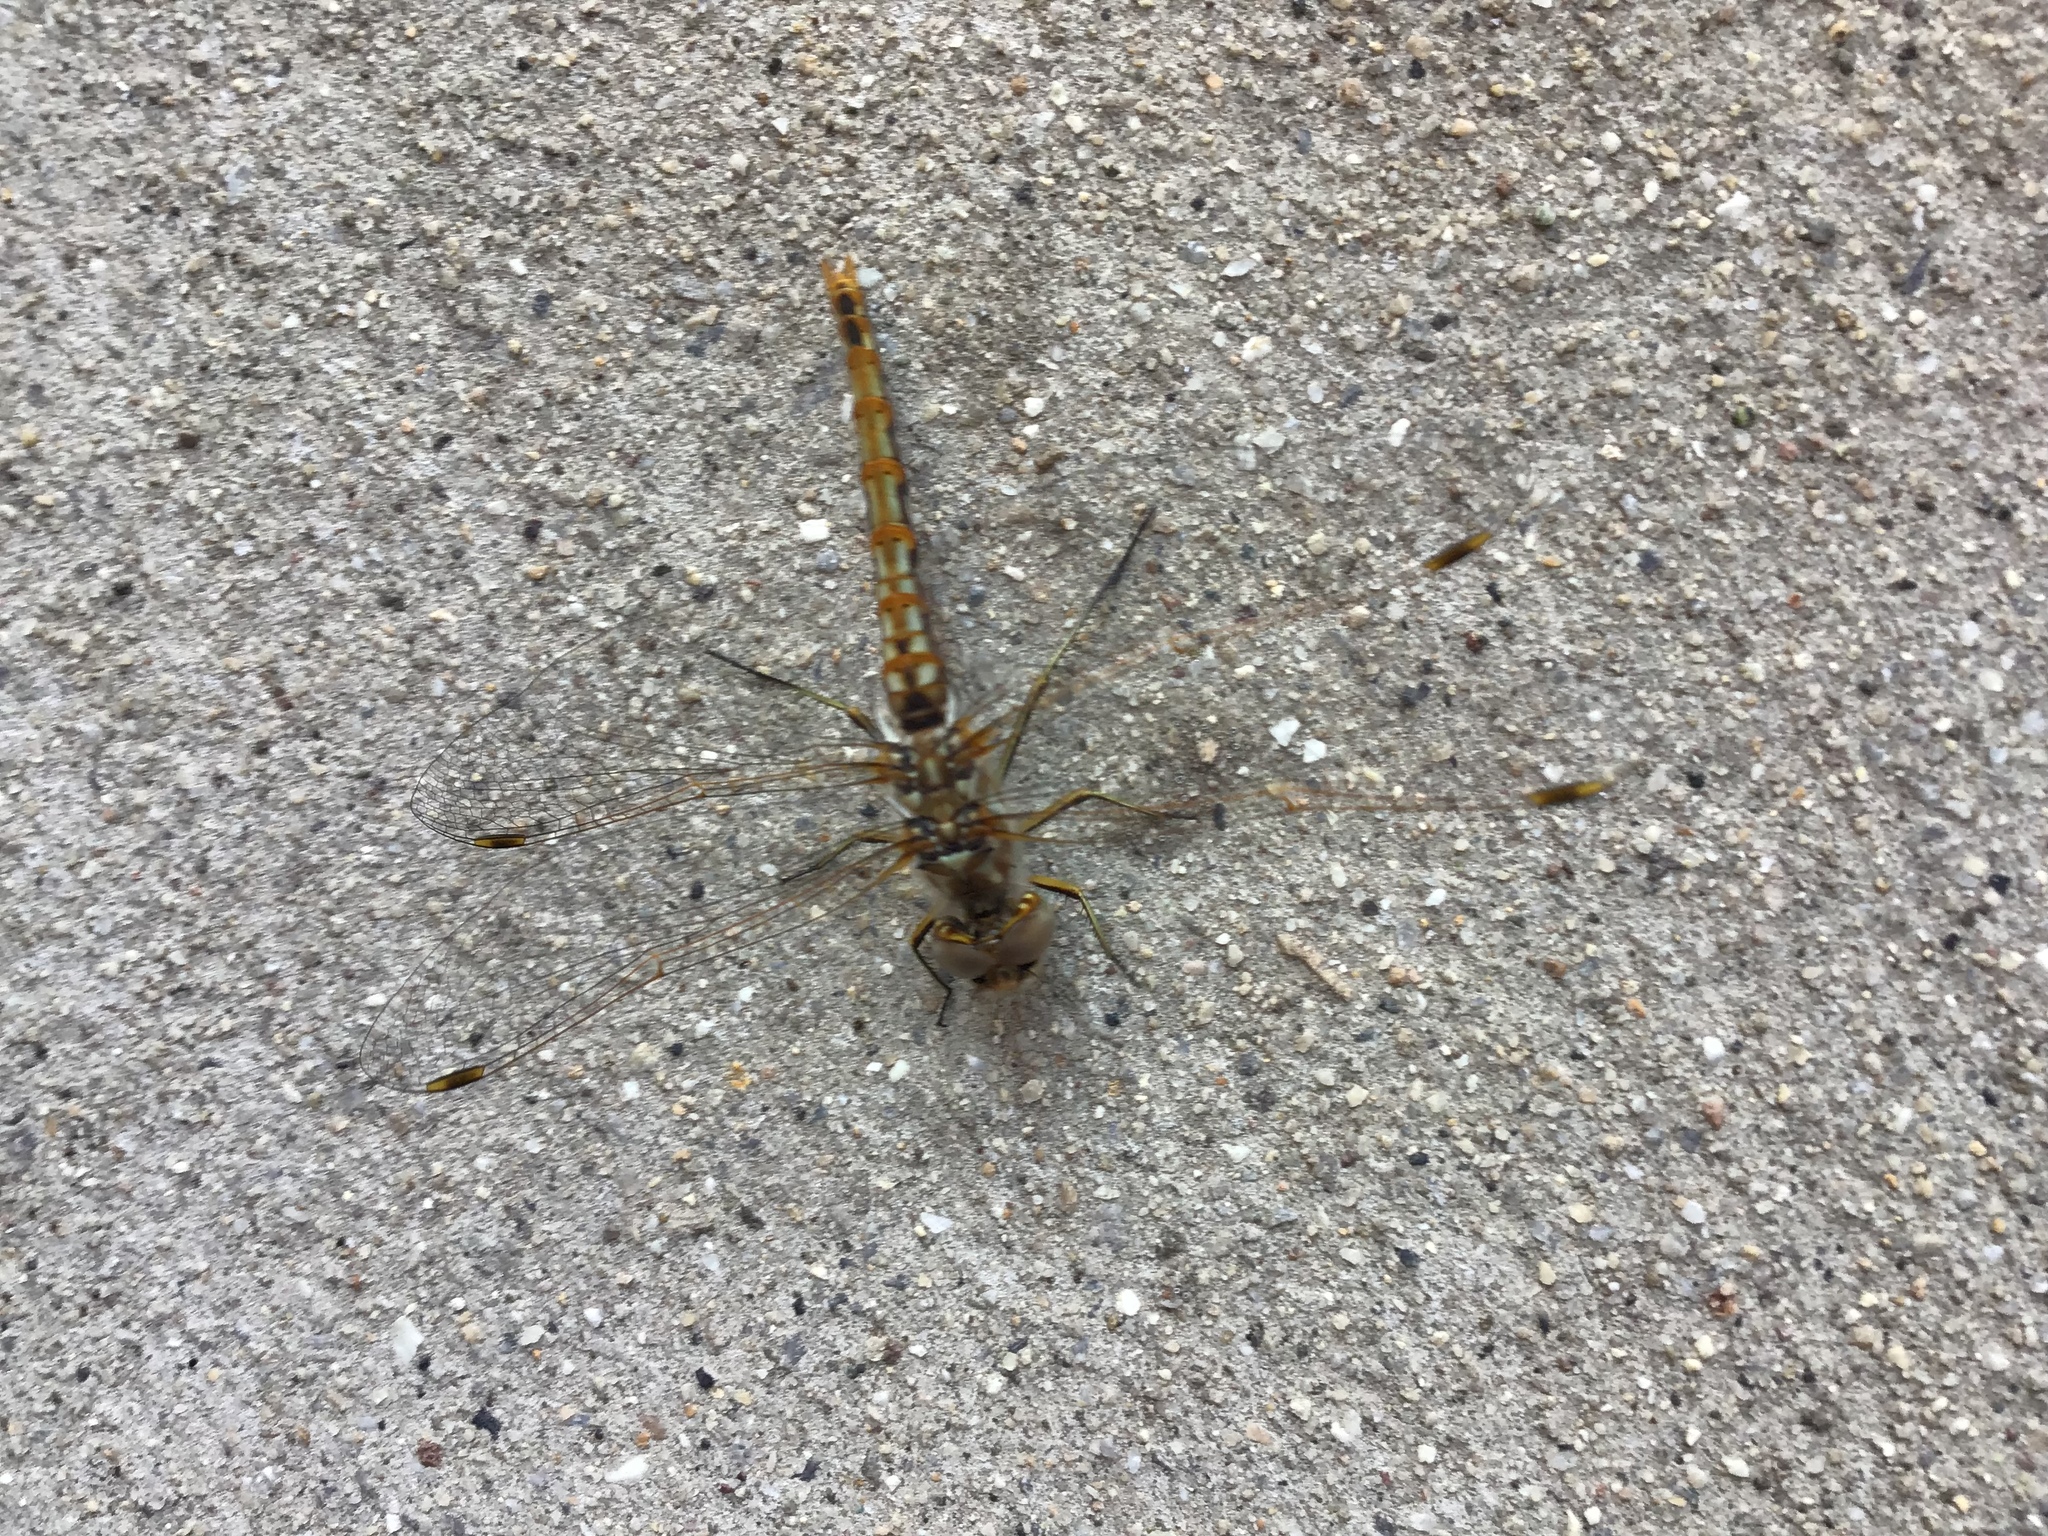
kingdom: Animalia
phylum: Arthropoda
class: Insecta
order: Odonata
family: Libellulidae
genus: Sympetrum
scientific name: Sympetrum corruptum
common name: Variegated meadowhawk
